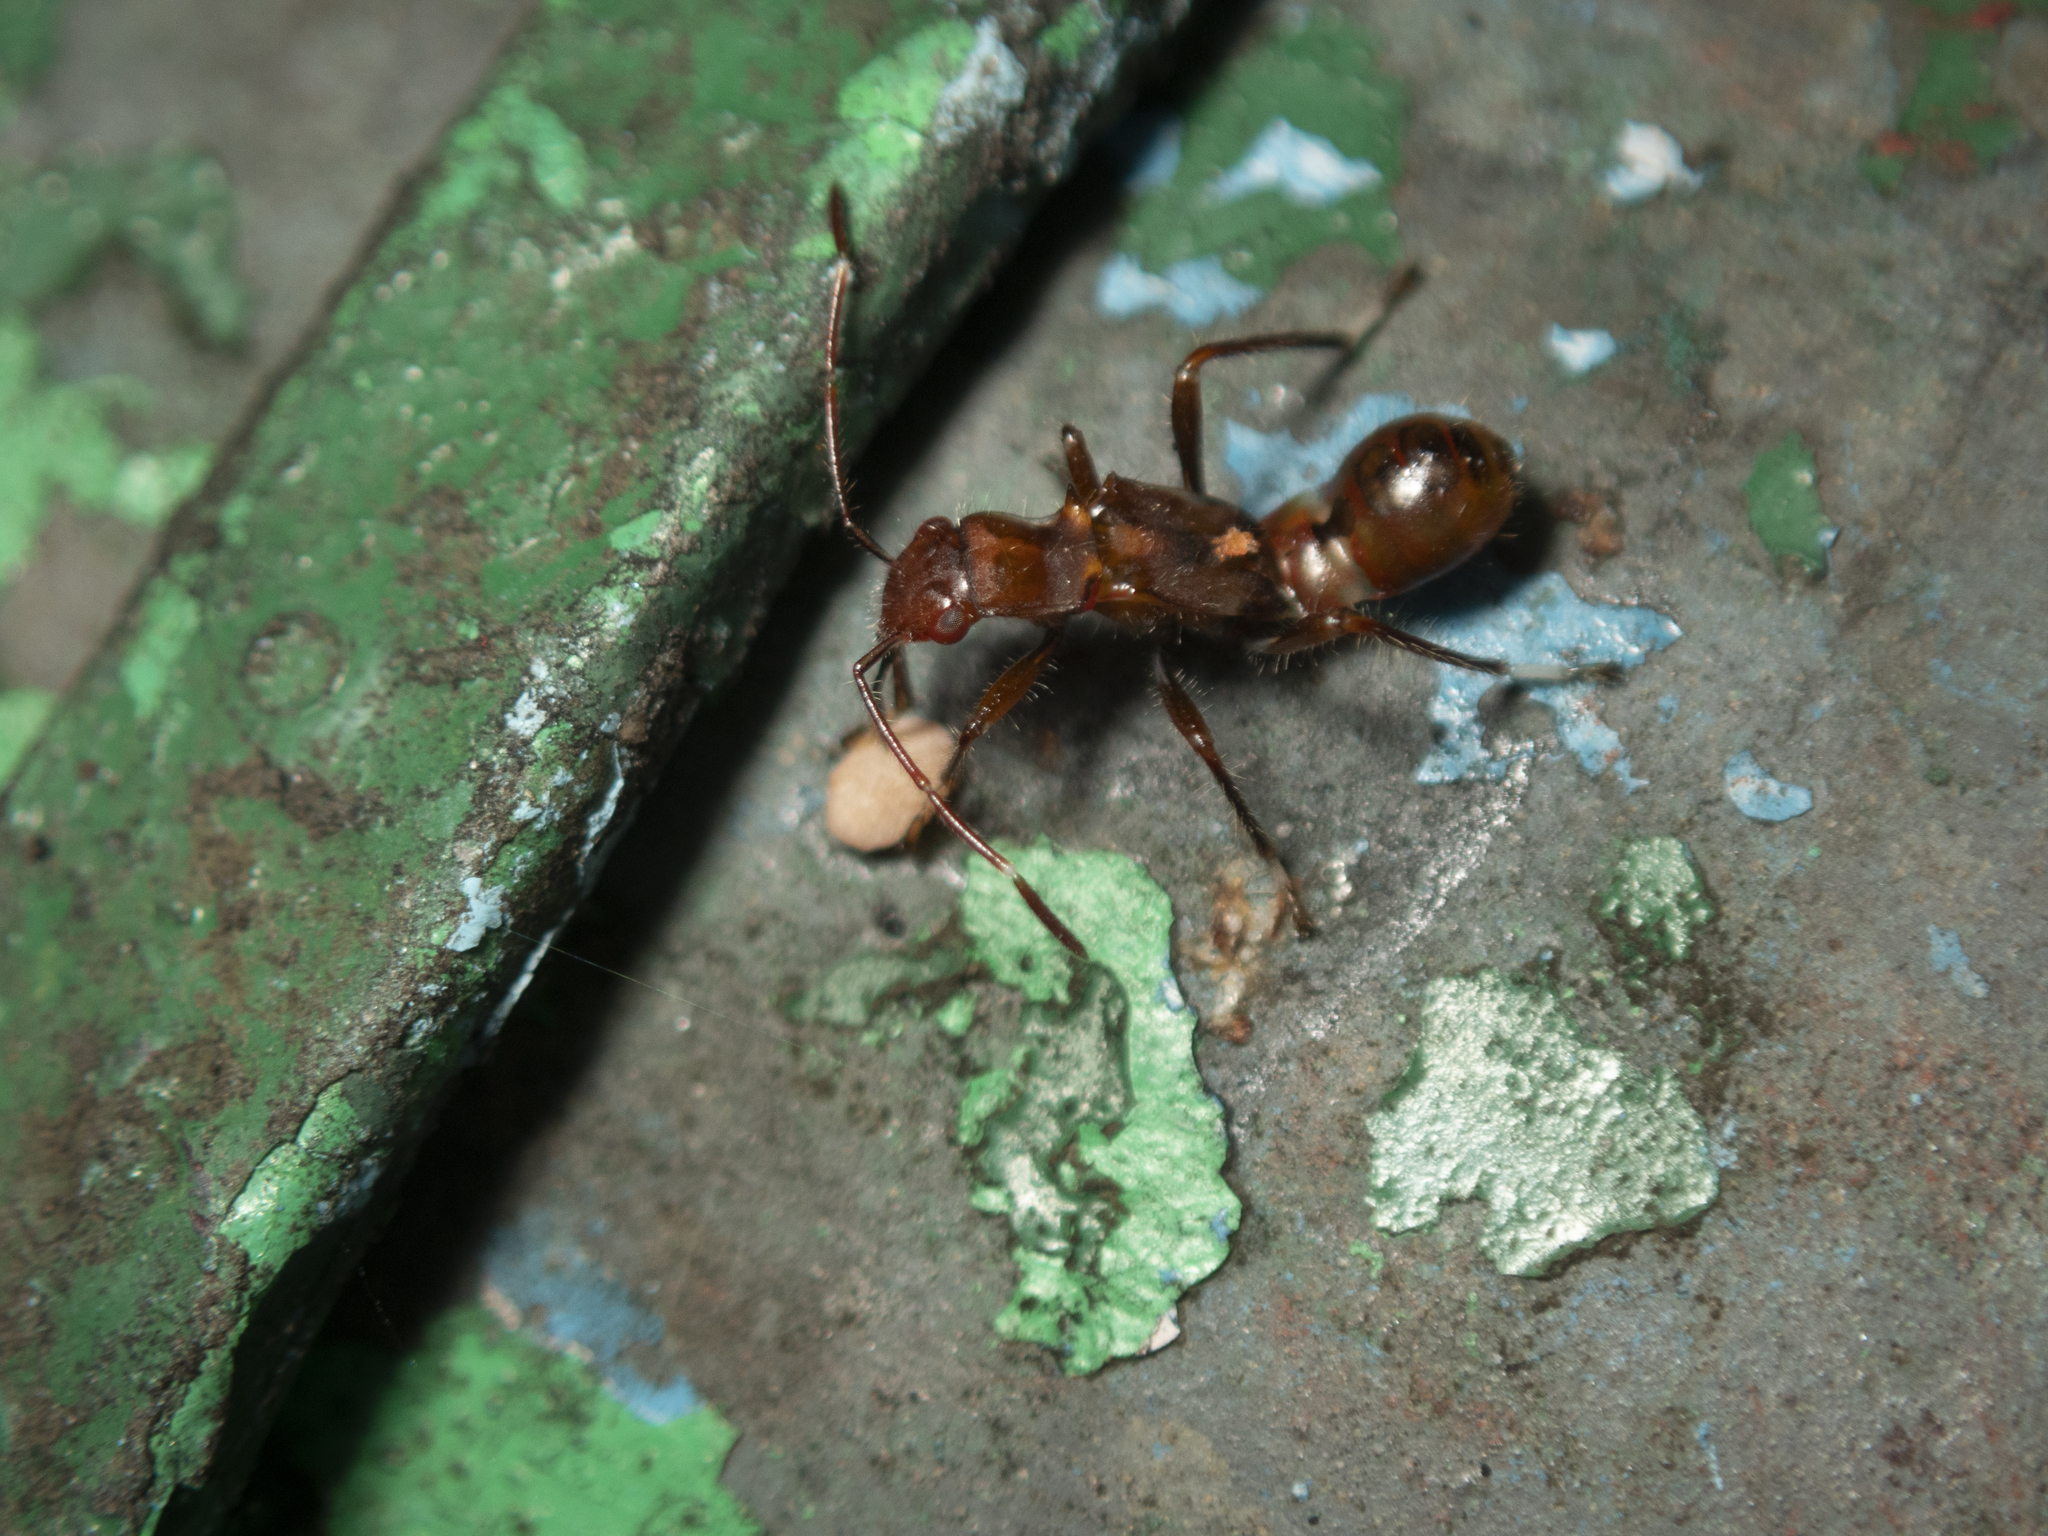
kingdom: Animalia
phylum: Arthropoda
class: Insecta
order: Hemiptera
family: Heterogastridae
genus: Artemidorus
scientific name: Artemidorus pressus
